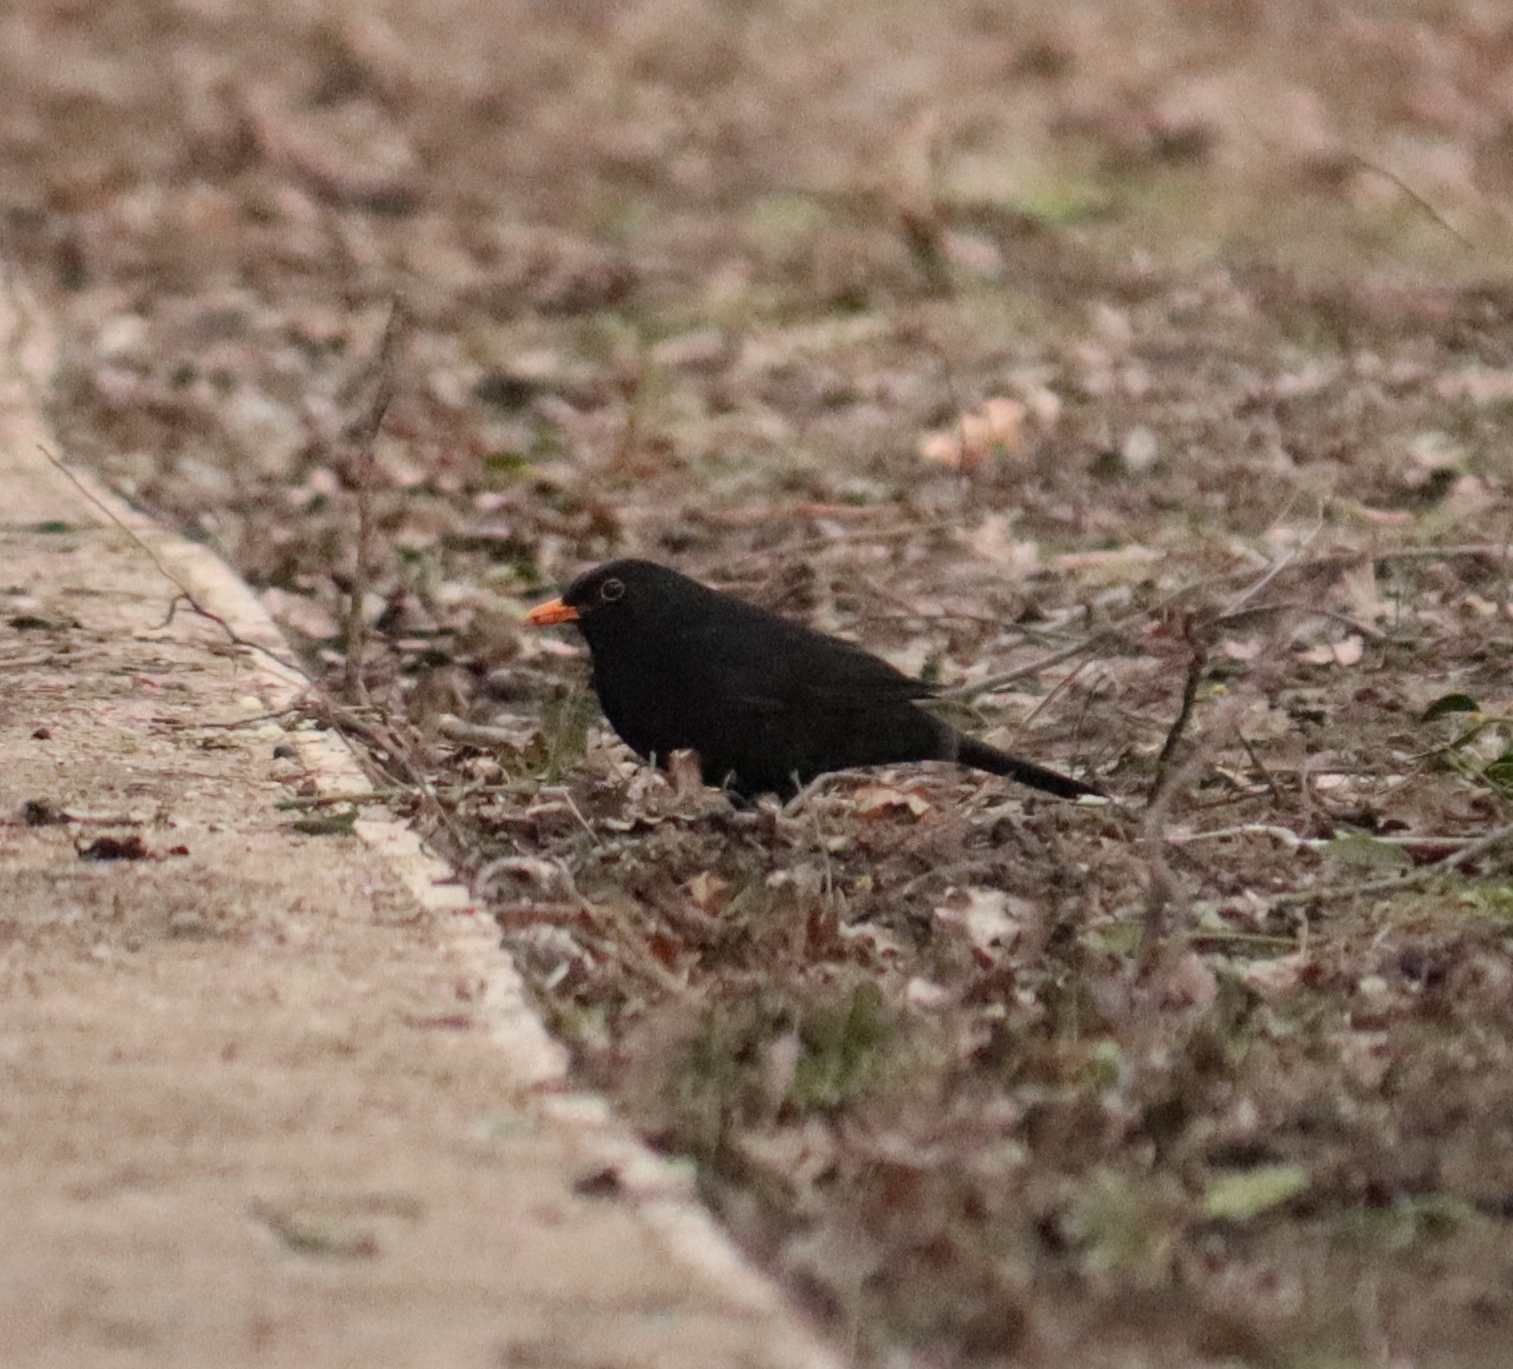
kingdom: Animalia
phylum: Chordata
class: Aves
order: Passeriformes
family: Turdidae
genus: Turdus
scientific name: Turdus merula
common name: Common blackbird
